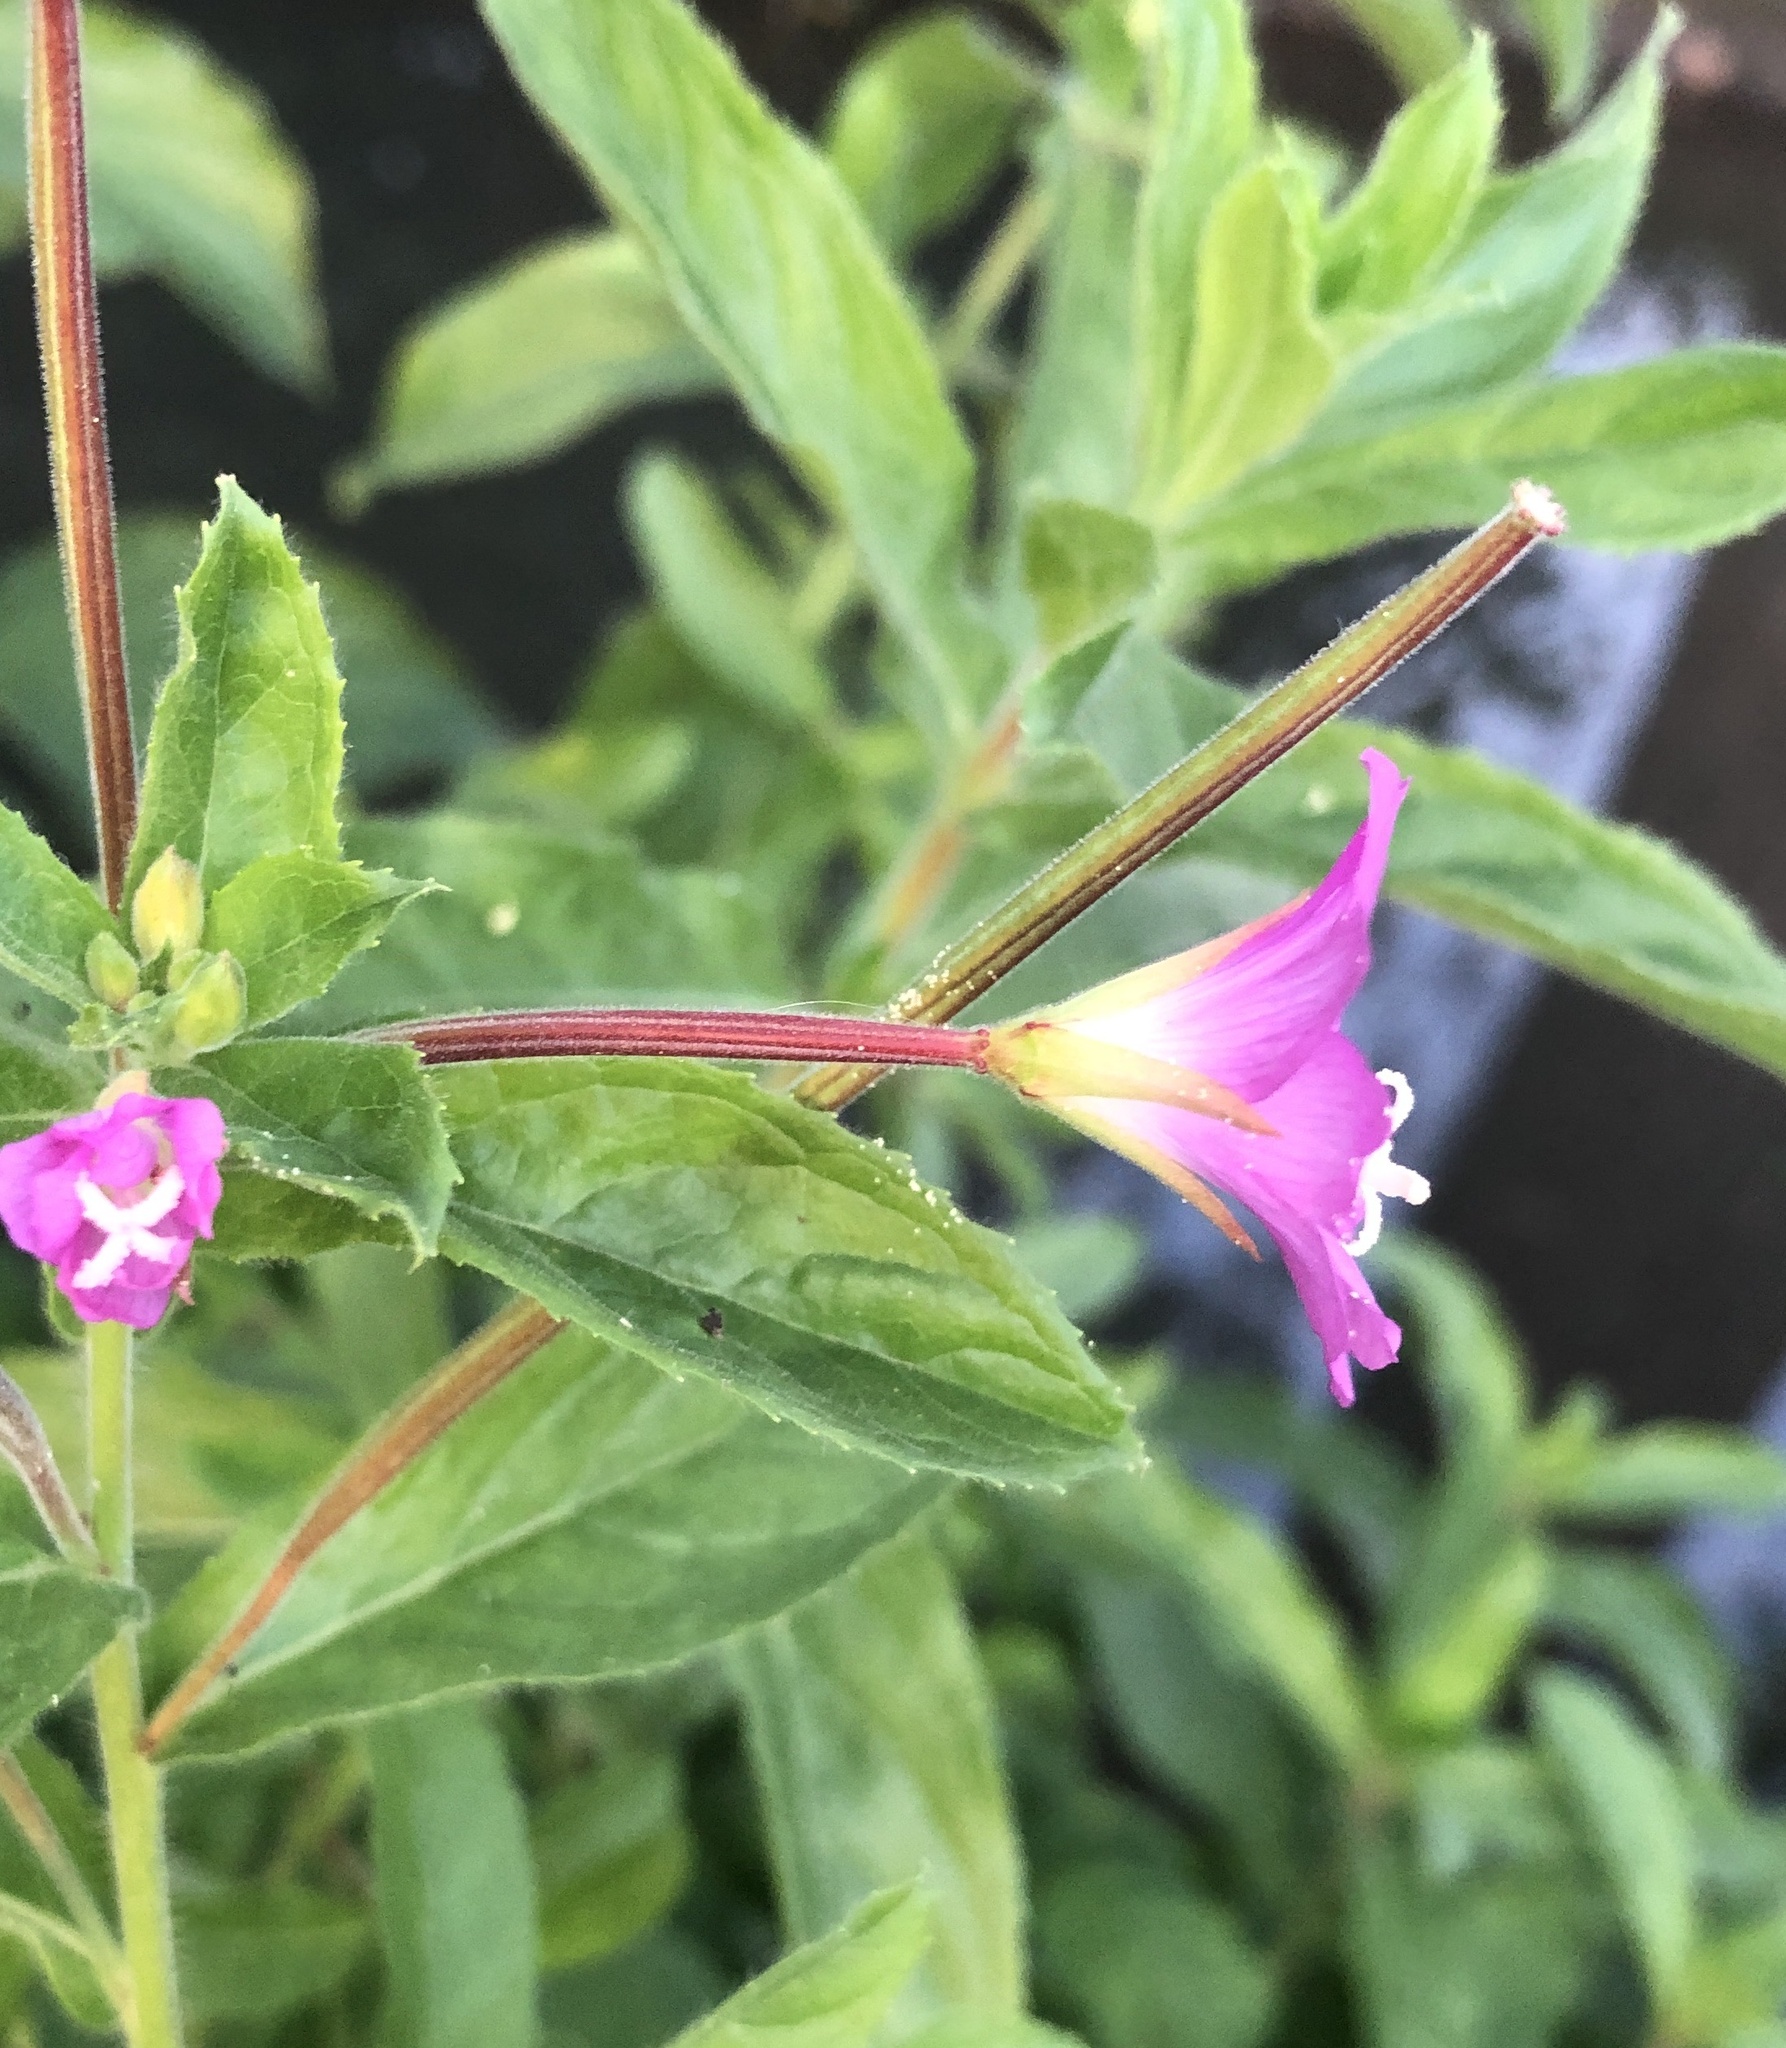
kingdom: Plantae
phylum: Tracheophyta
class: Magnoliopsida
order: Myrtales
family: Onagraceae
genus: Epilobium
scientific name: Epilobium hirsutum
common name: Great willowherb
